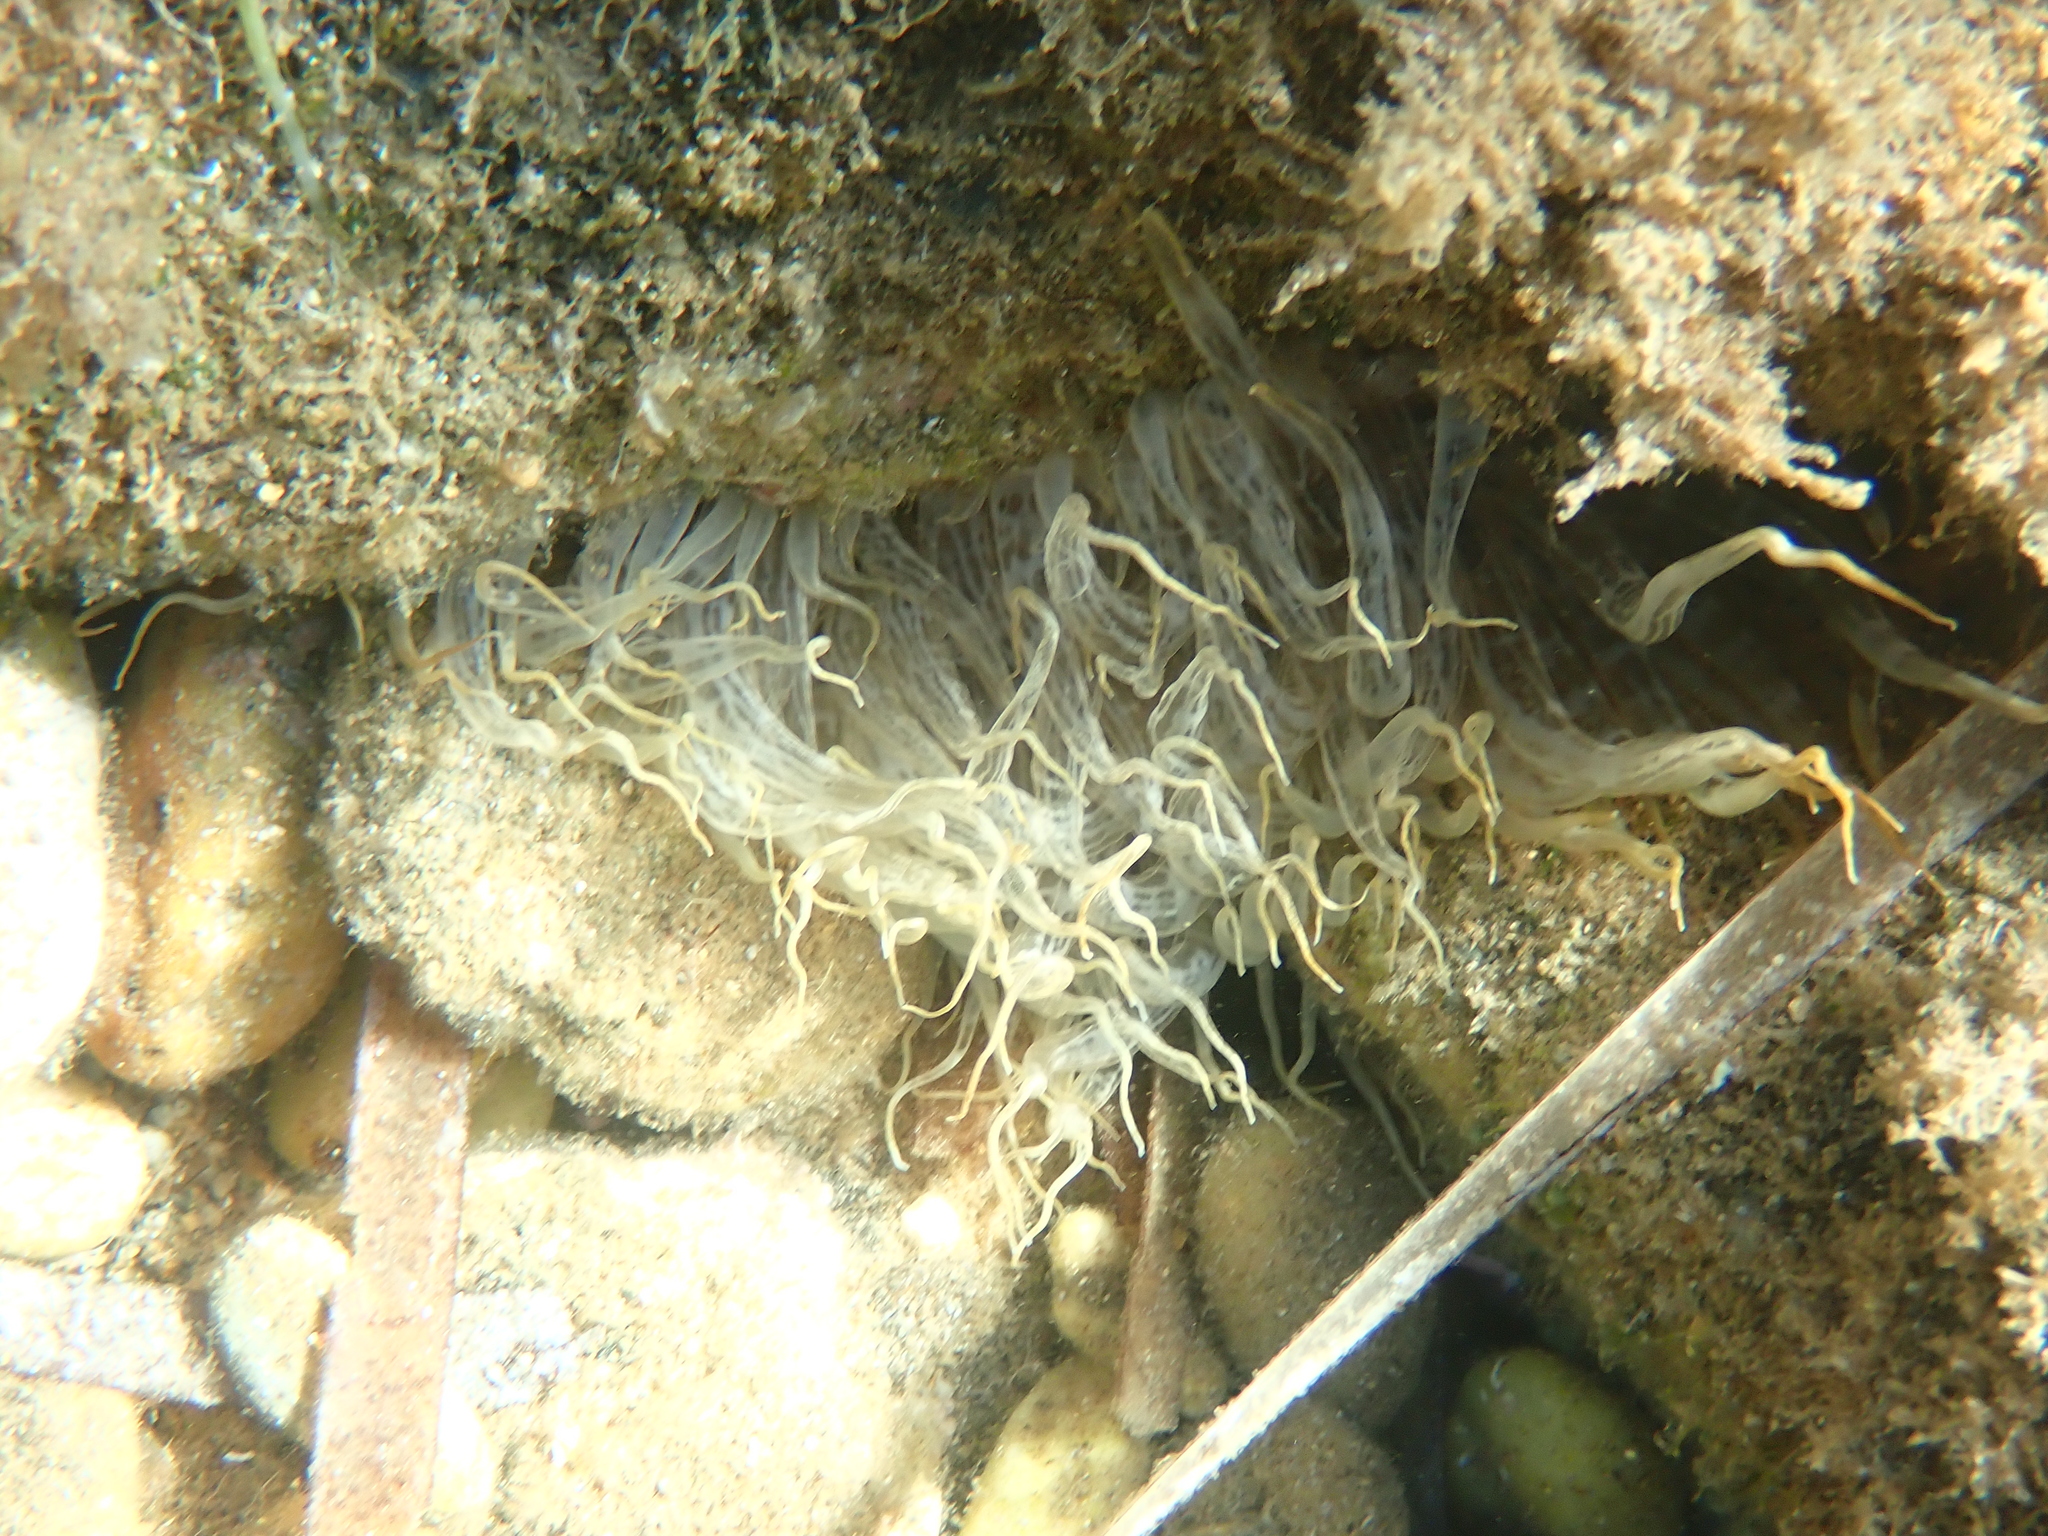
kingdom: Animalia
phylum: Cnidaria
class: Anthozoa
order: Actiniaria
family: Aiptasiidae
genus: Aiptasia
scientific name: Aiptasia mutabilis
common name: Trumpet anemone
